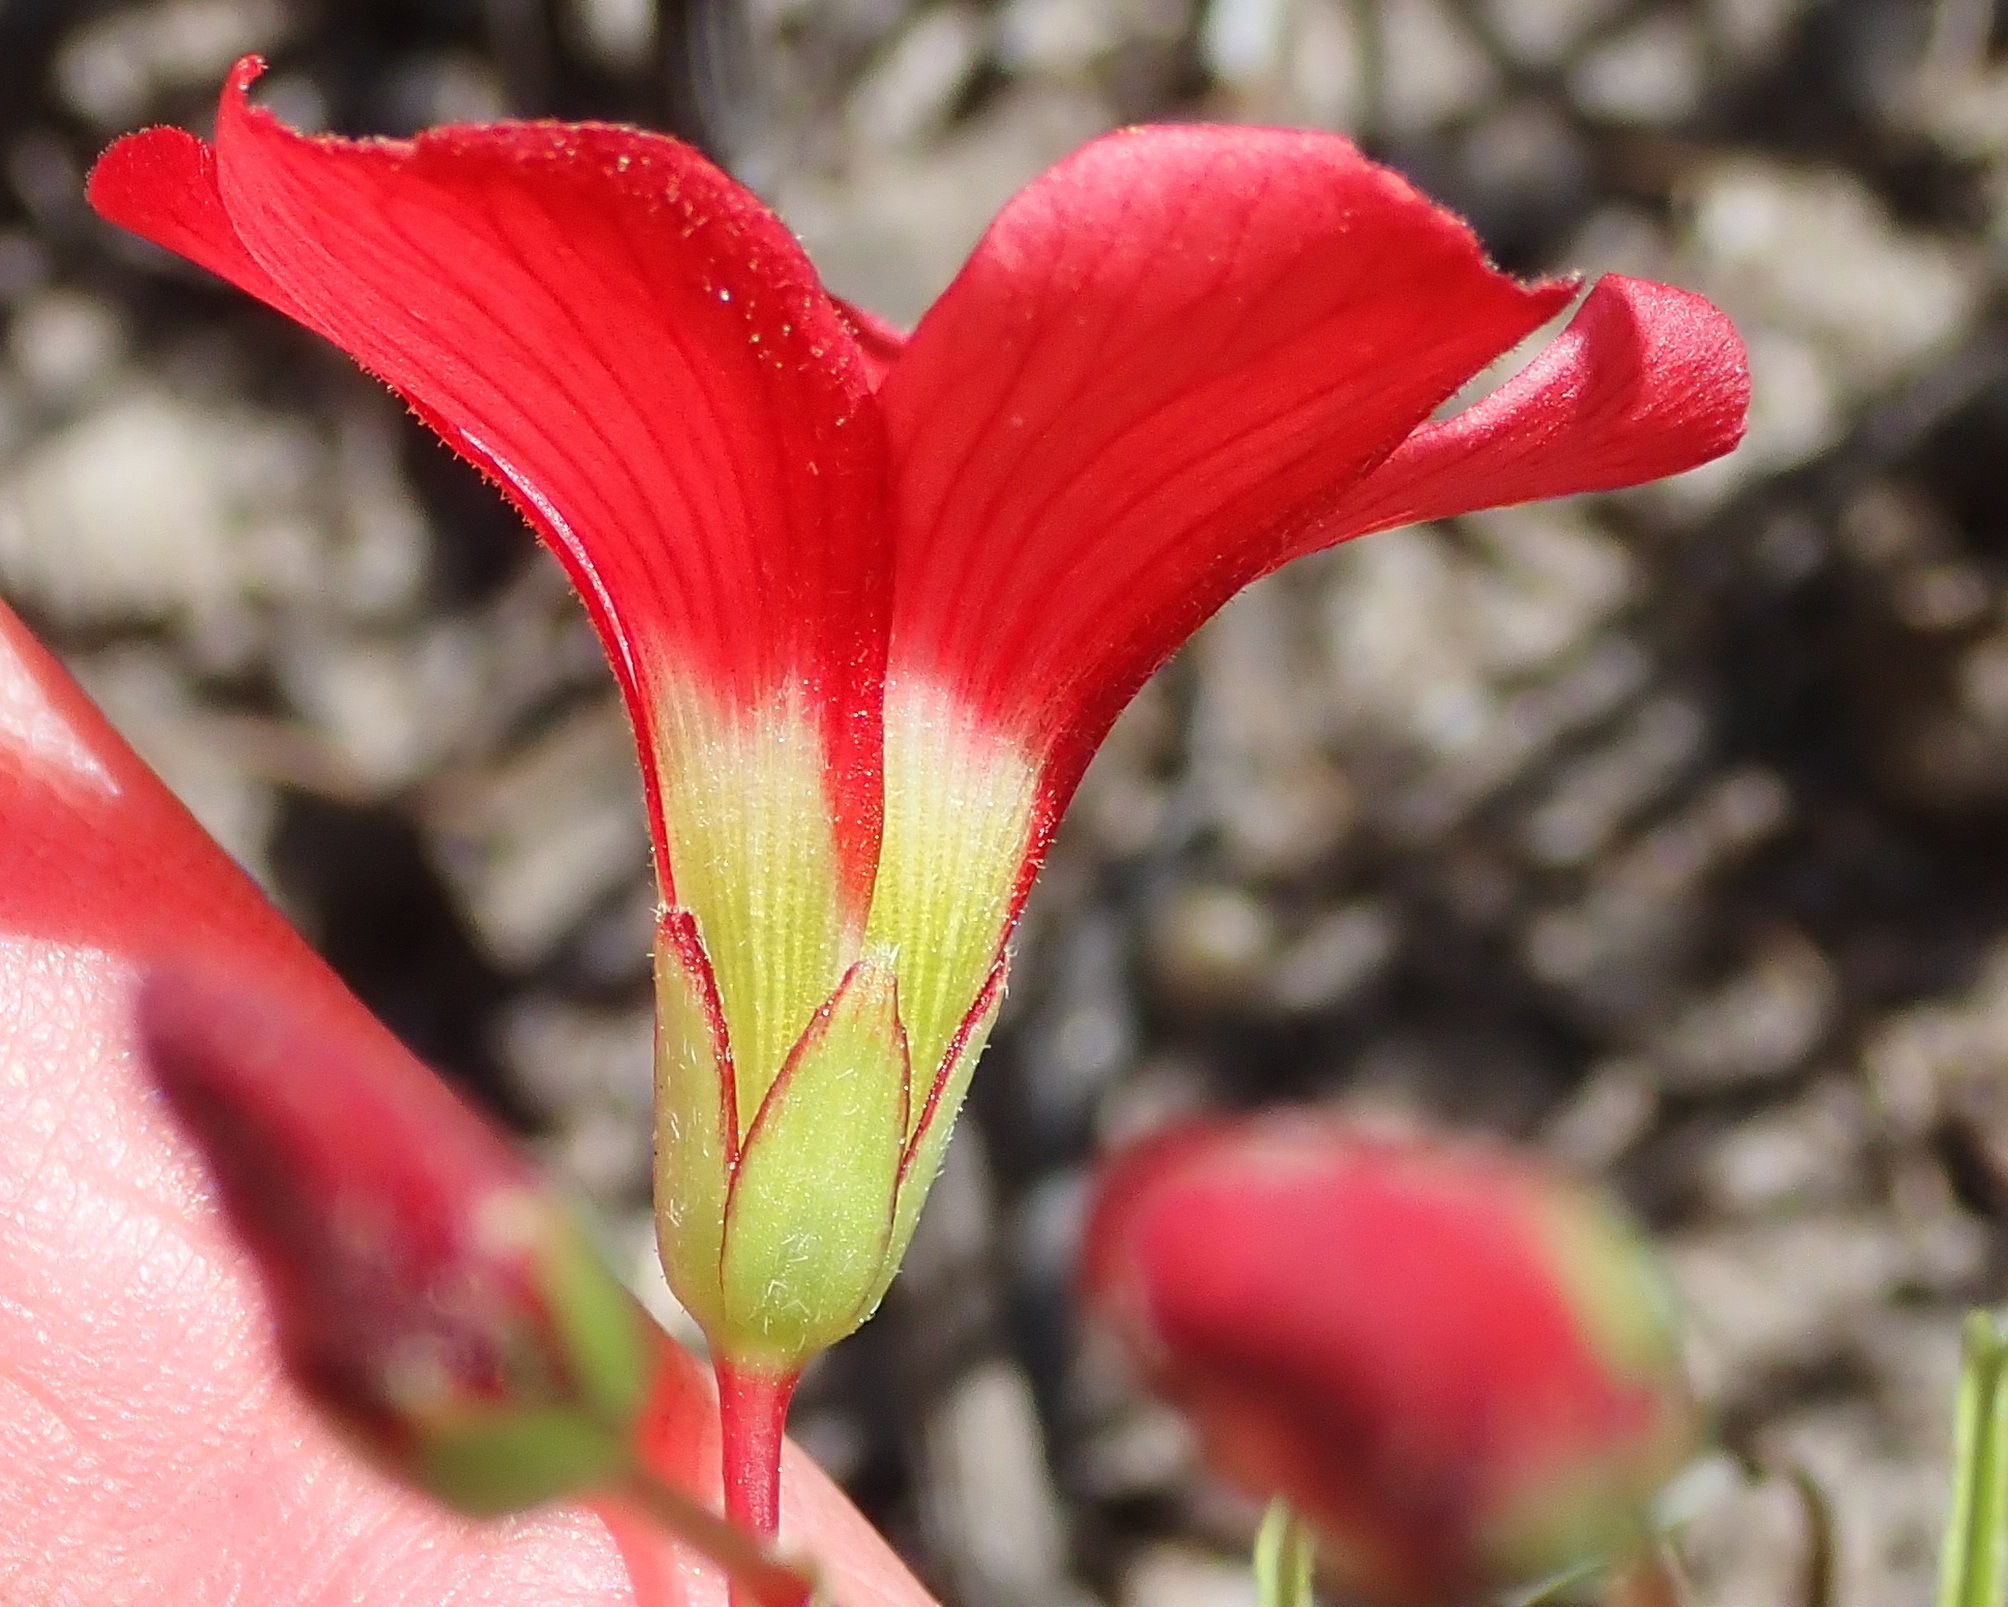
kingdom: Plantae
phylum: Tracheophyta
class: Magnoliopsida
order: Oxalidales
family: Oxalidaceae
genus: Oxalis
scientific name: Oxalis pendulifolia
